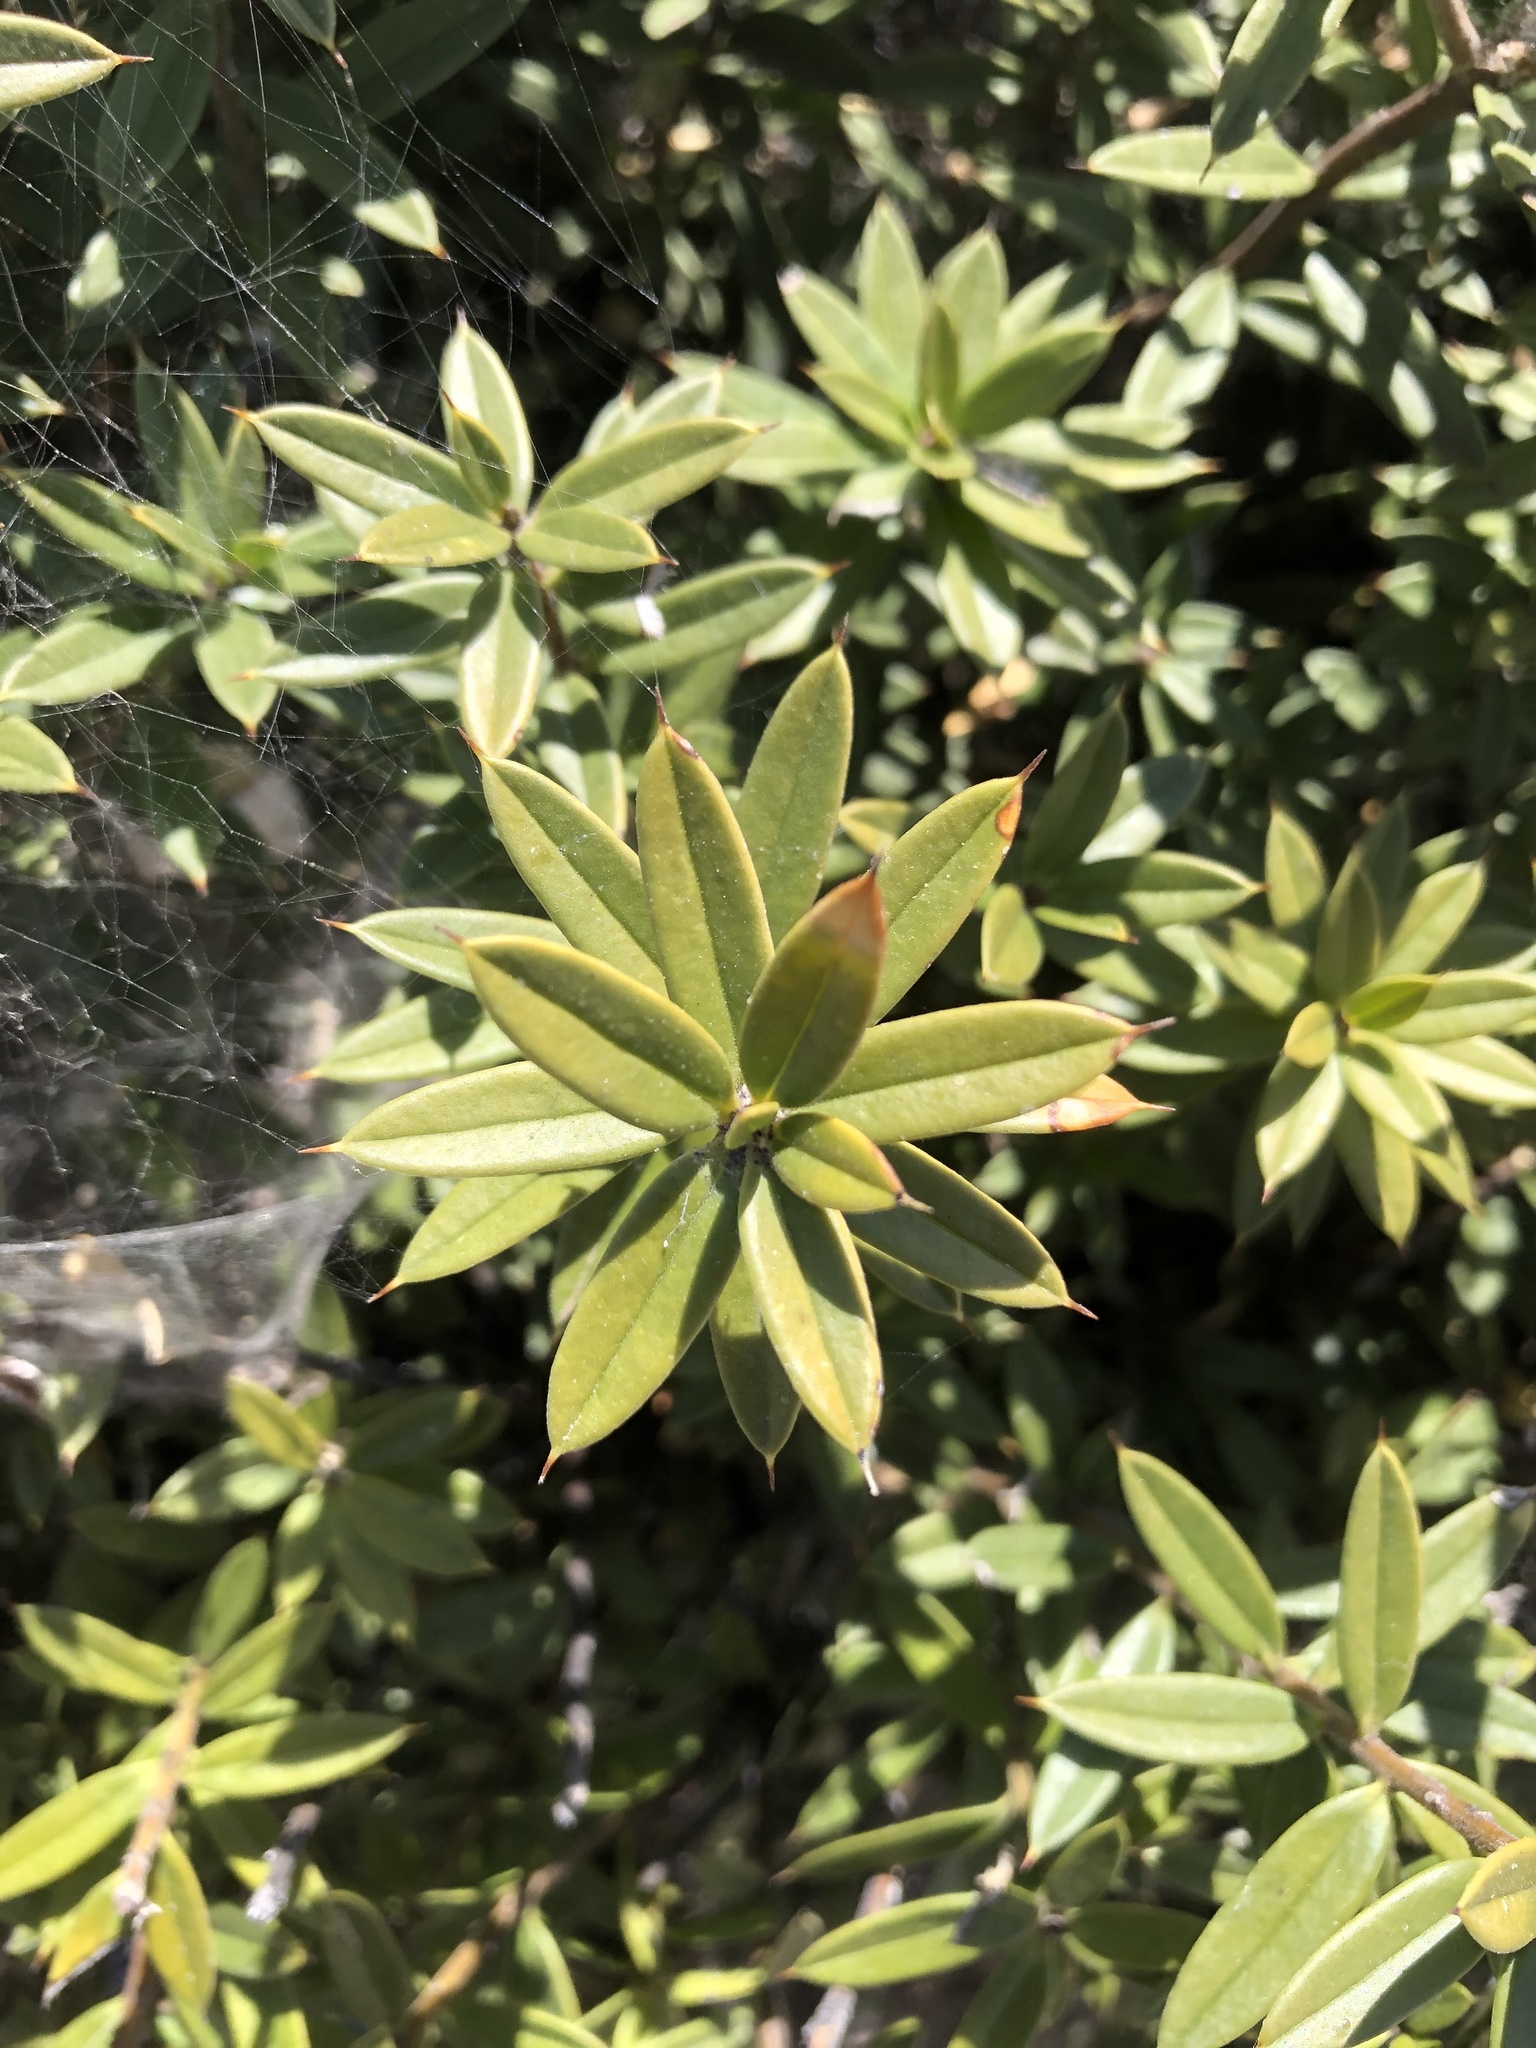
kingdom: Plantae
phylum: Tracheophyta
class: Magnoliopsida
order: Ericales
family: Primulaceae
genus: Bonellia
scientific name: Bonellia macrocarpa
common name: Primrose
